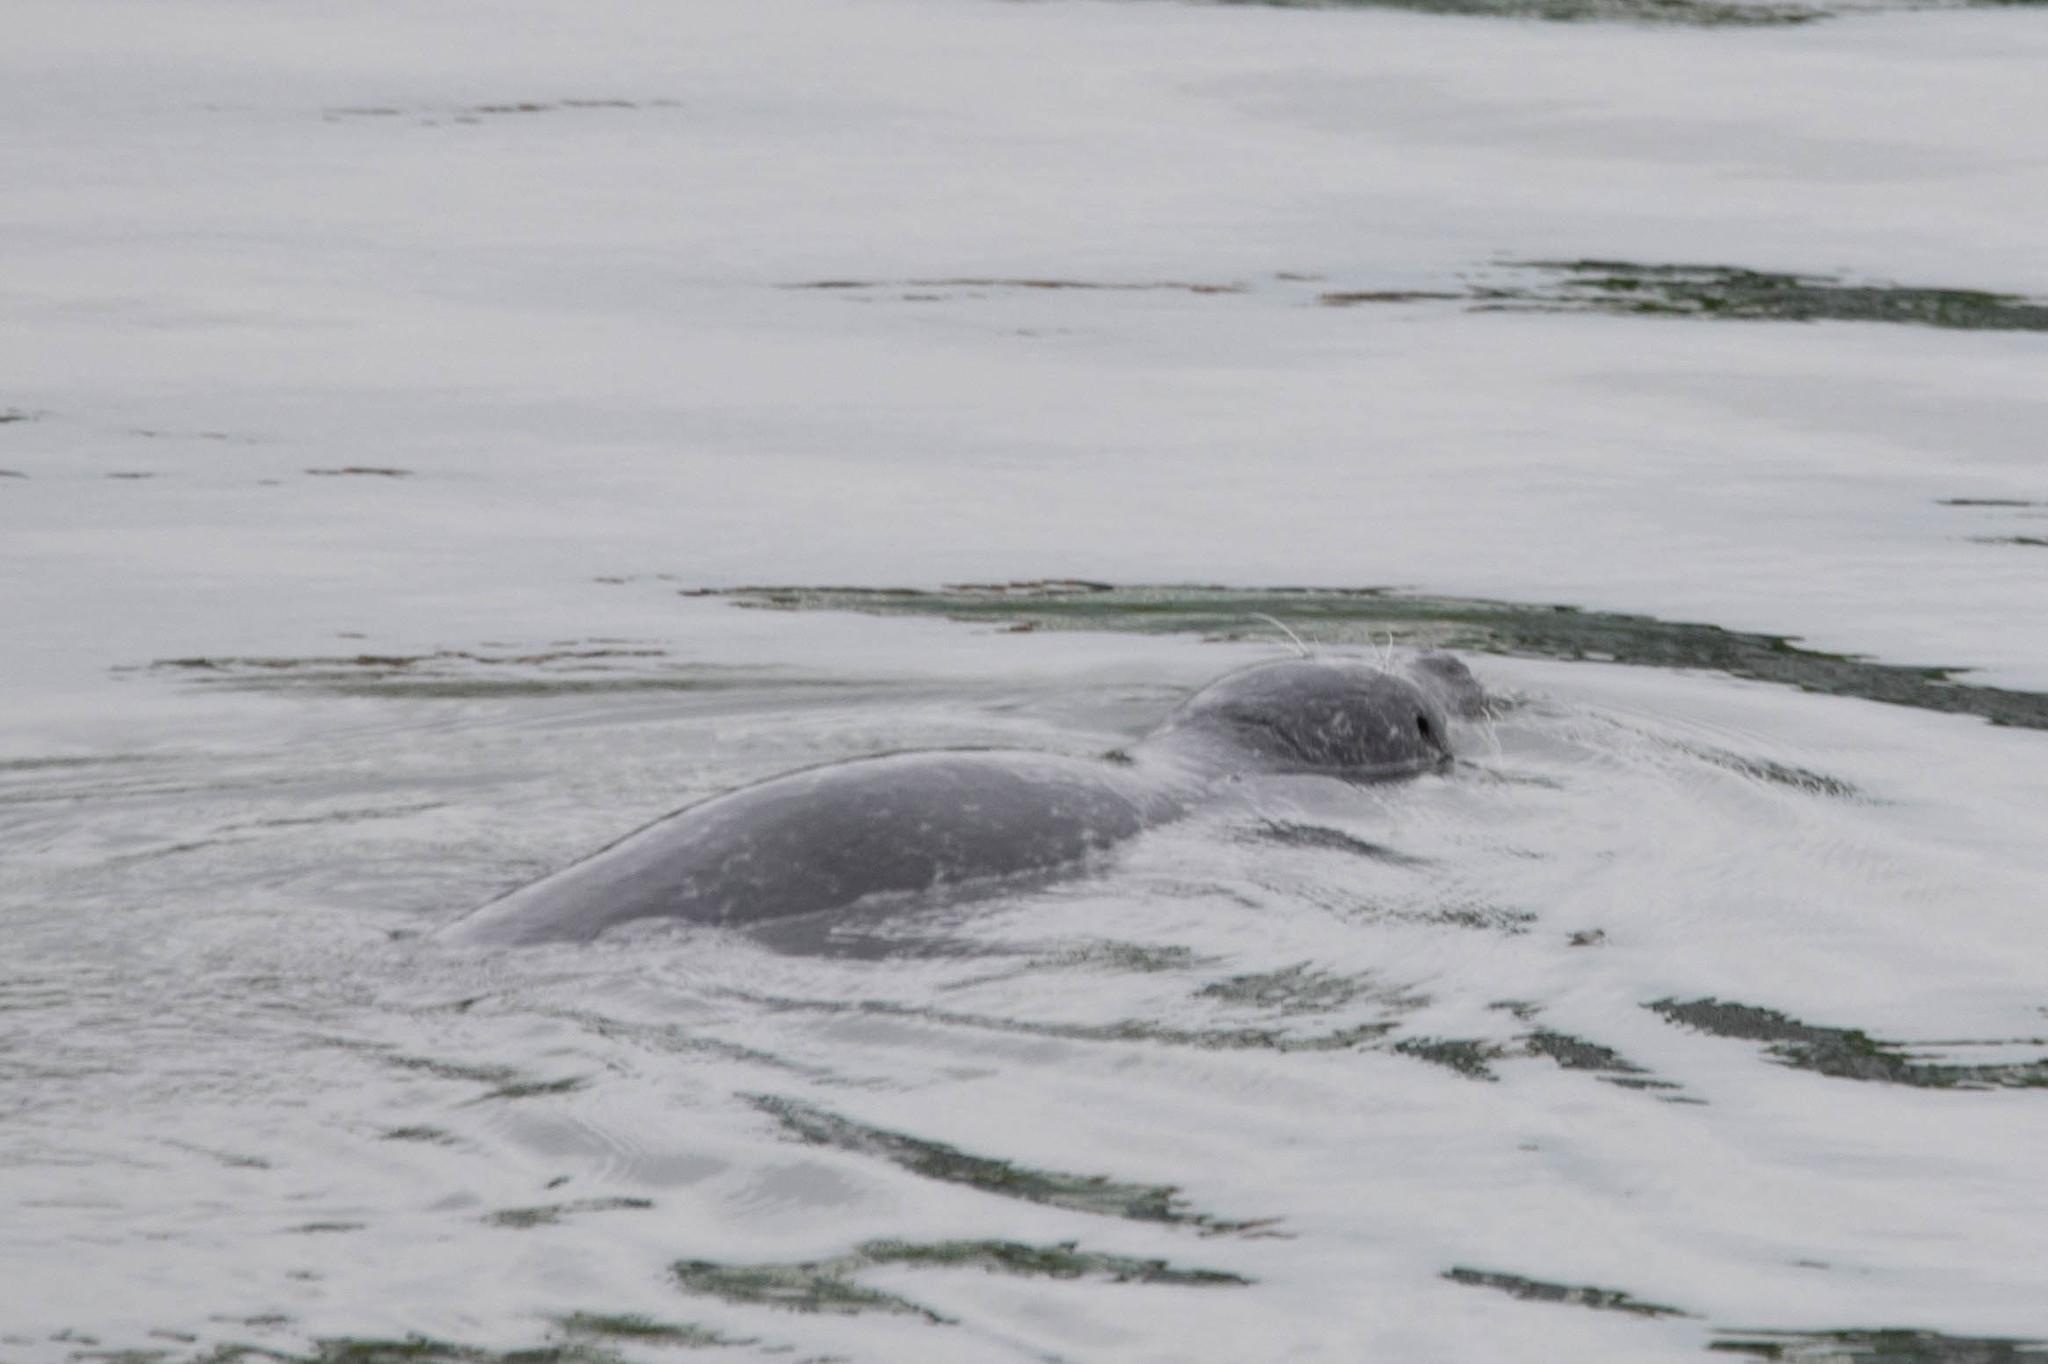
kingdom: Animalia
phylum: Chordata
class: Mammalia
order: Carnivora
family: Phocidae
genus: Phoca
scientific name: Phoca vitulina
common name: Harbor seal
